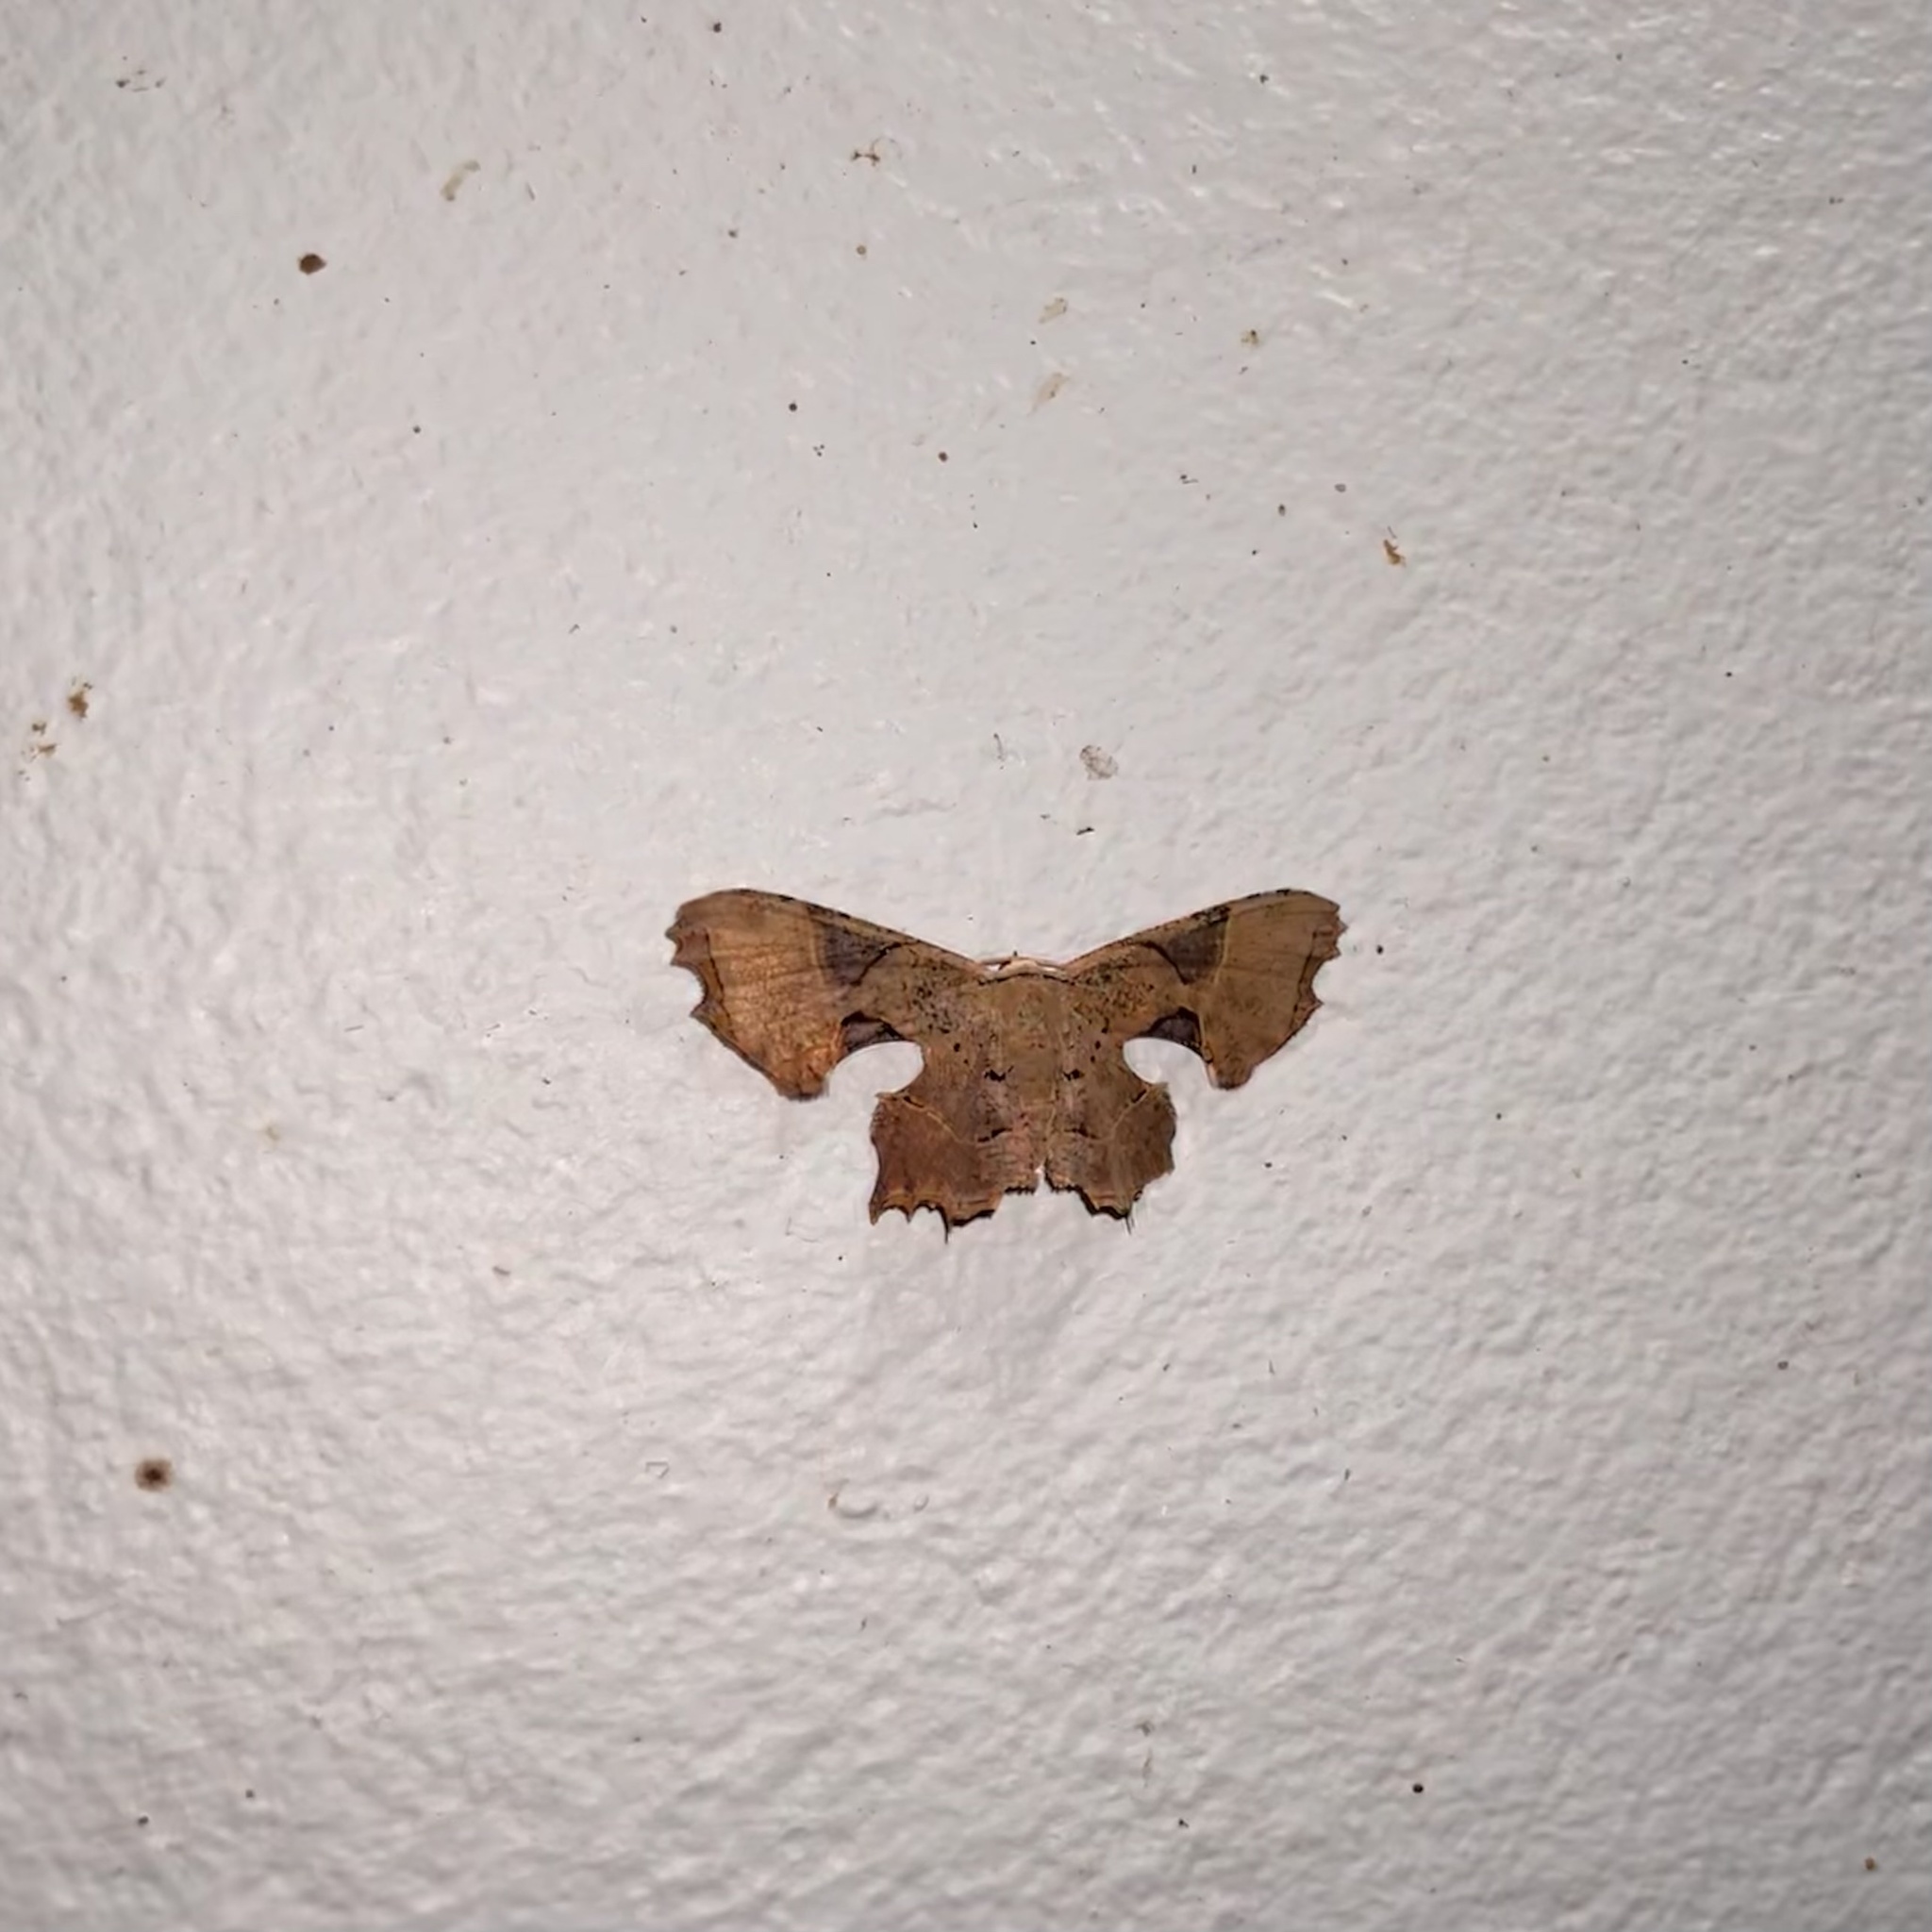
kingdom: Animalia
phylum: Arthropoda
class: Insecta
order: Lepidoptera
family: Uraniidae
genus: Epiplema
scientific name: Epiplema acutangularia
